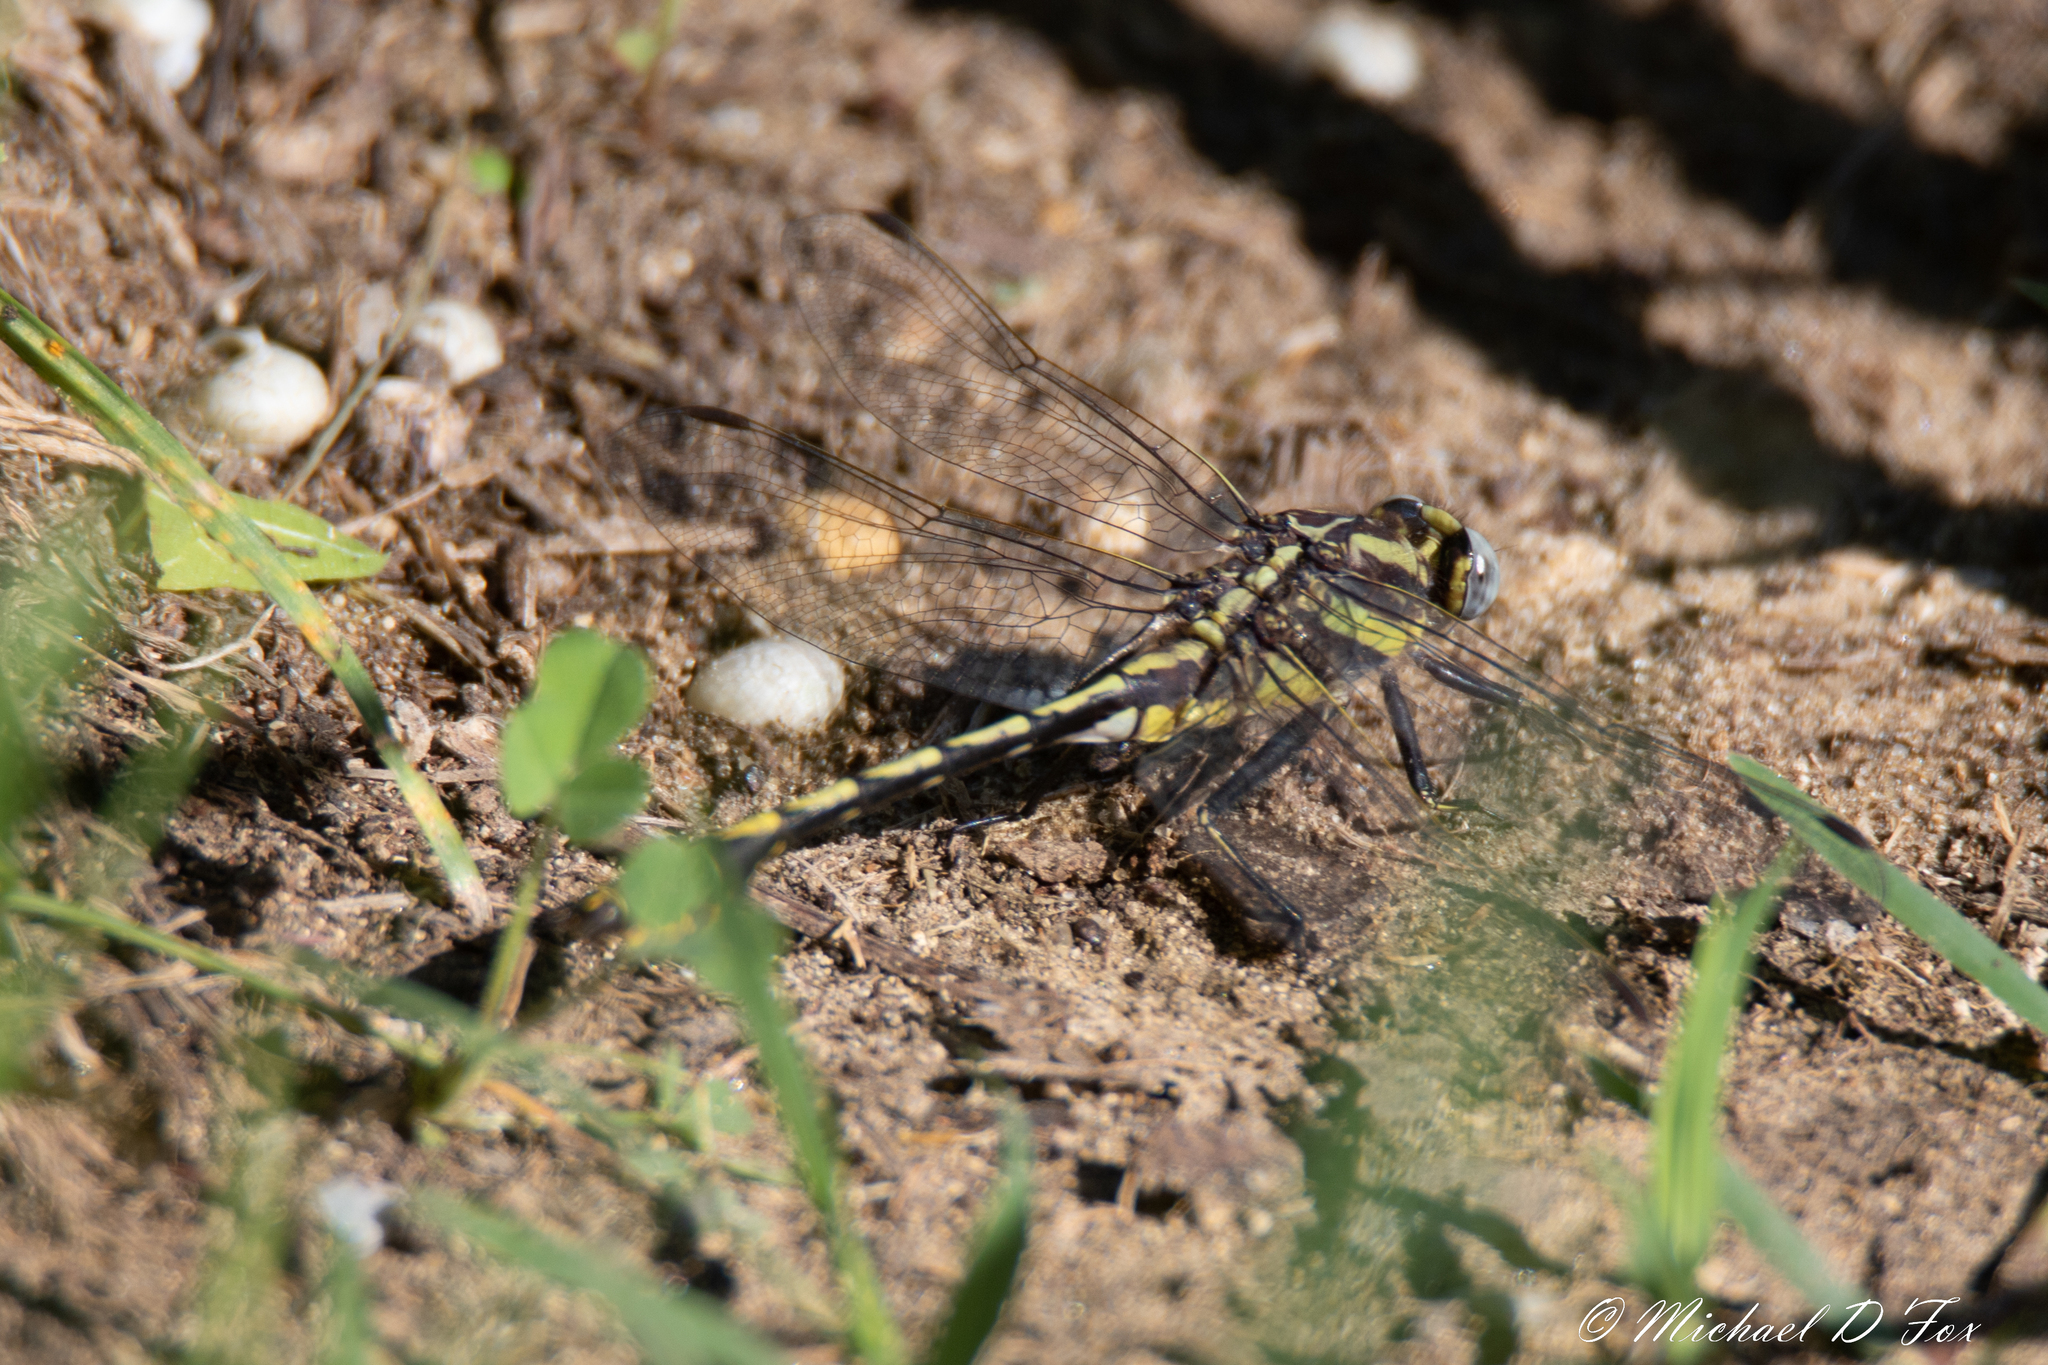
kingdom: Animalia
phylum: Arthropoda
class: Insecta
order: Odonata
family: Gomphidae
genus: Gomphurus
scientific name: Gomphurus externus
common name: Plains clubtail
